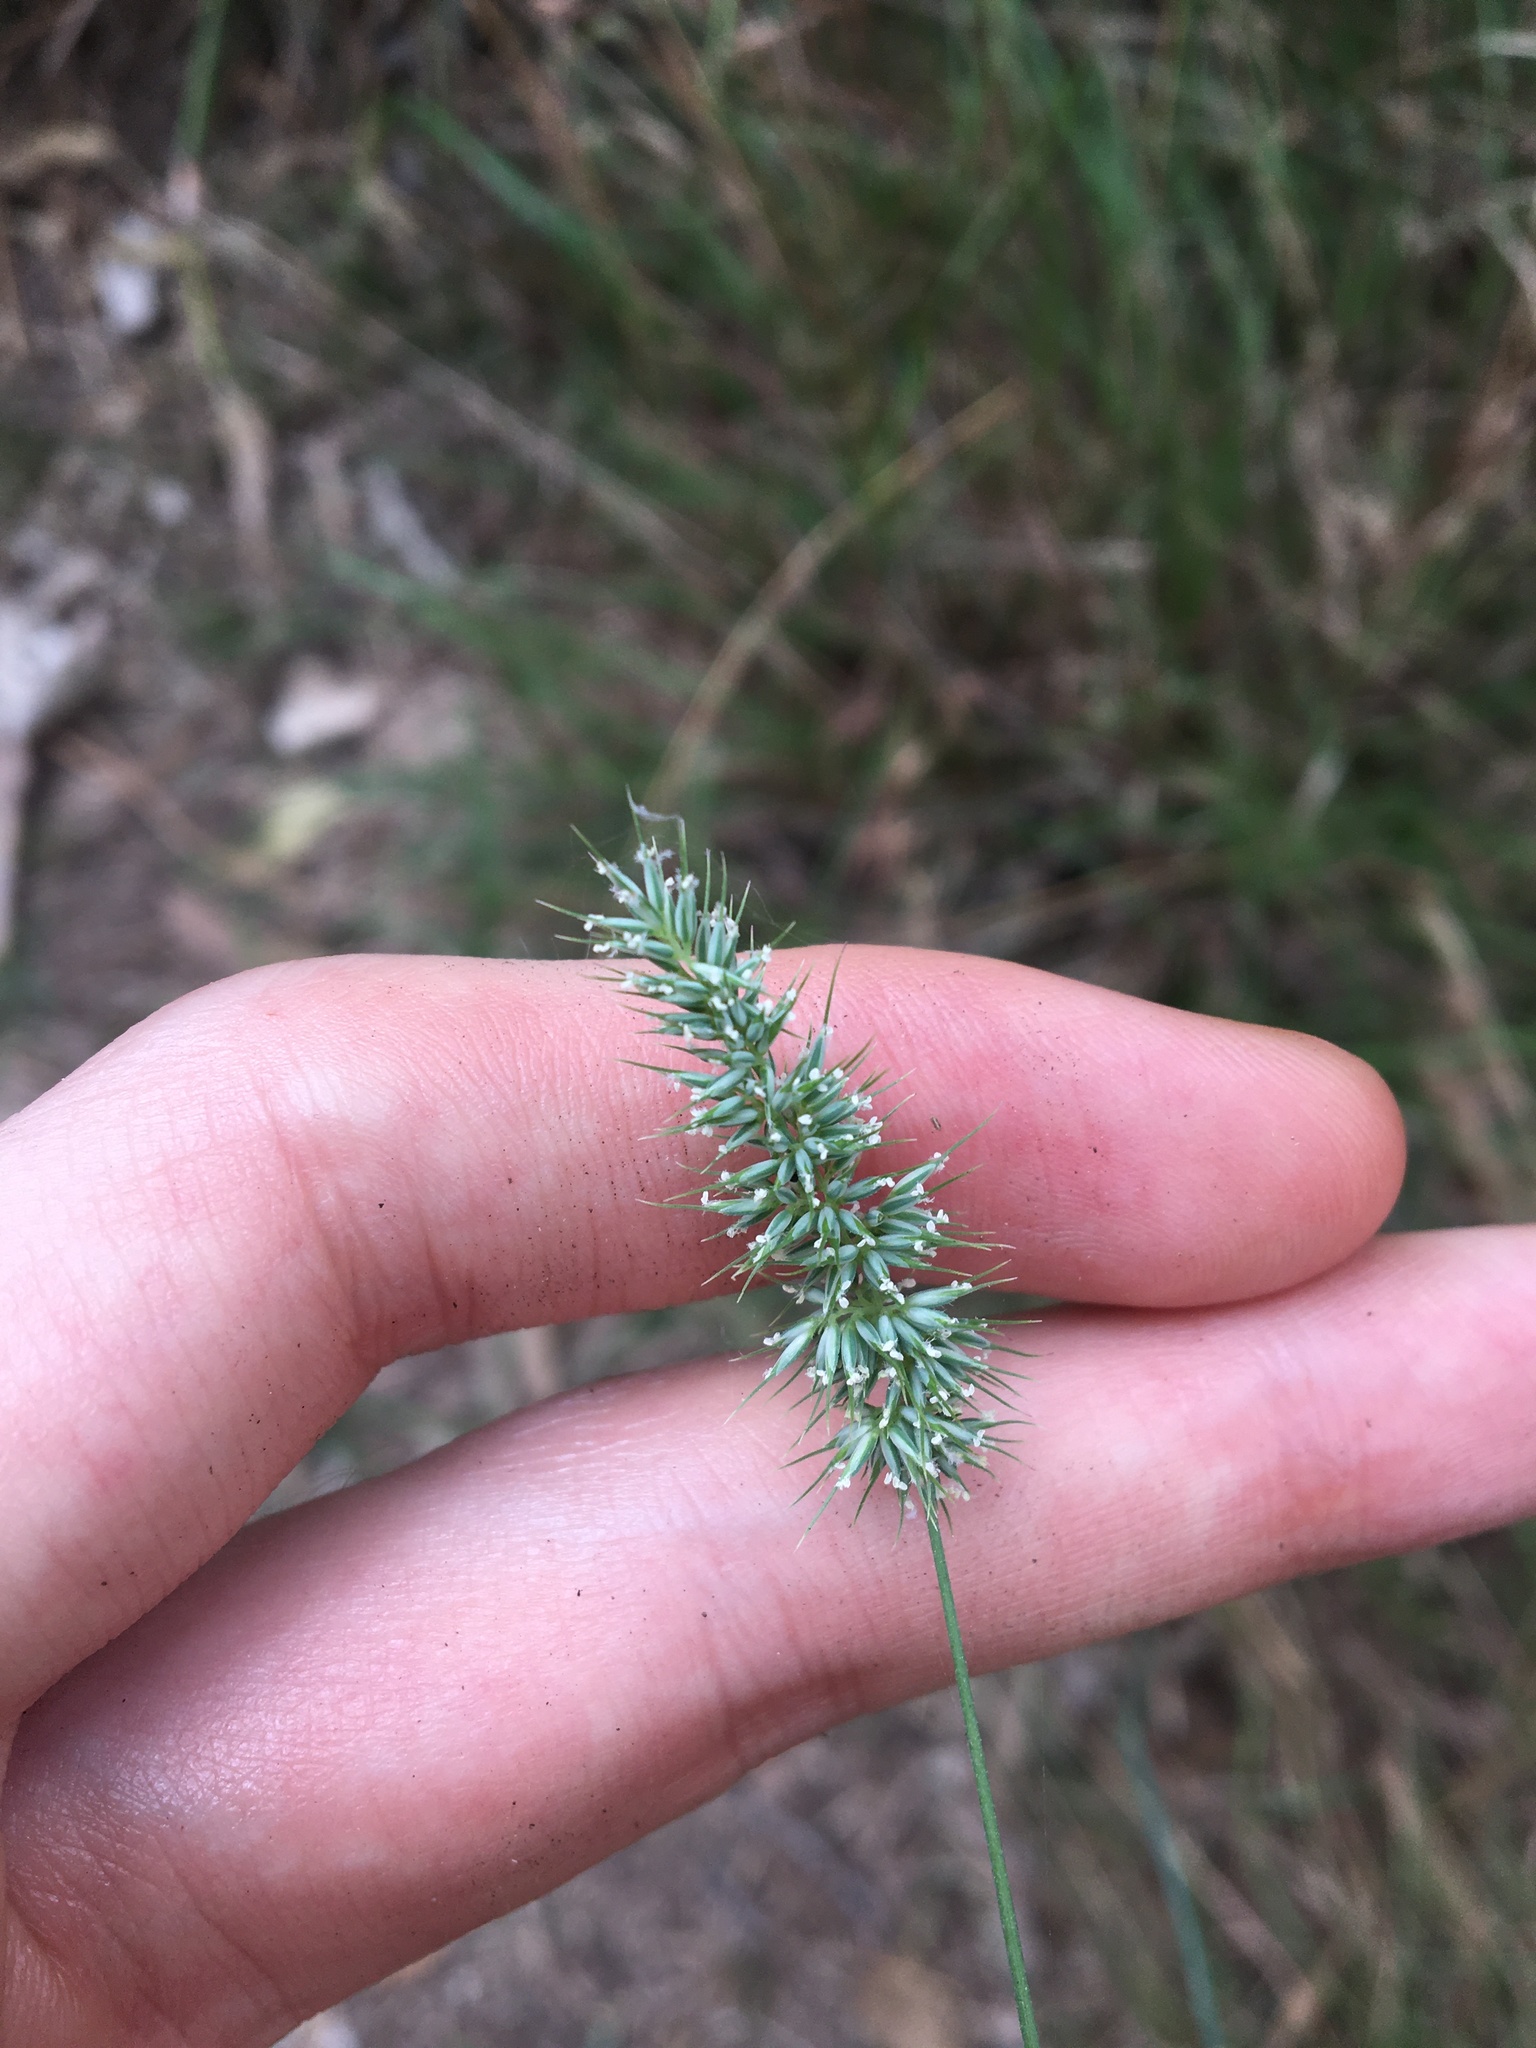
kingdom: Plantae
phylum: Tracheophyta
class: Liliopsida
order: Poales
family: Poaceae
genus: Echinopogon
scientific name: Echinopogon caespitosus
